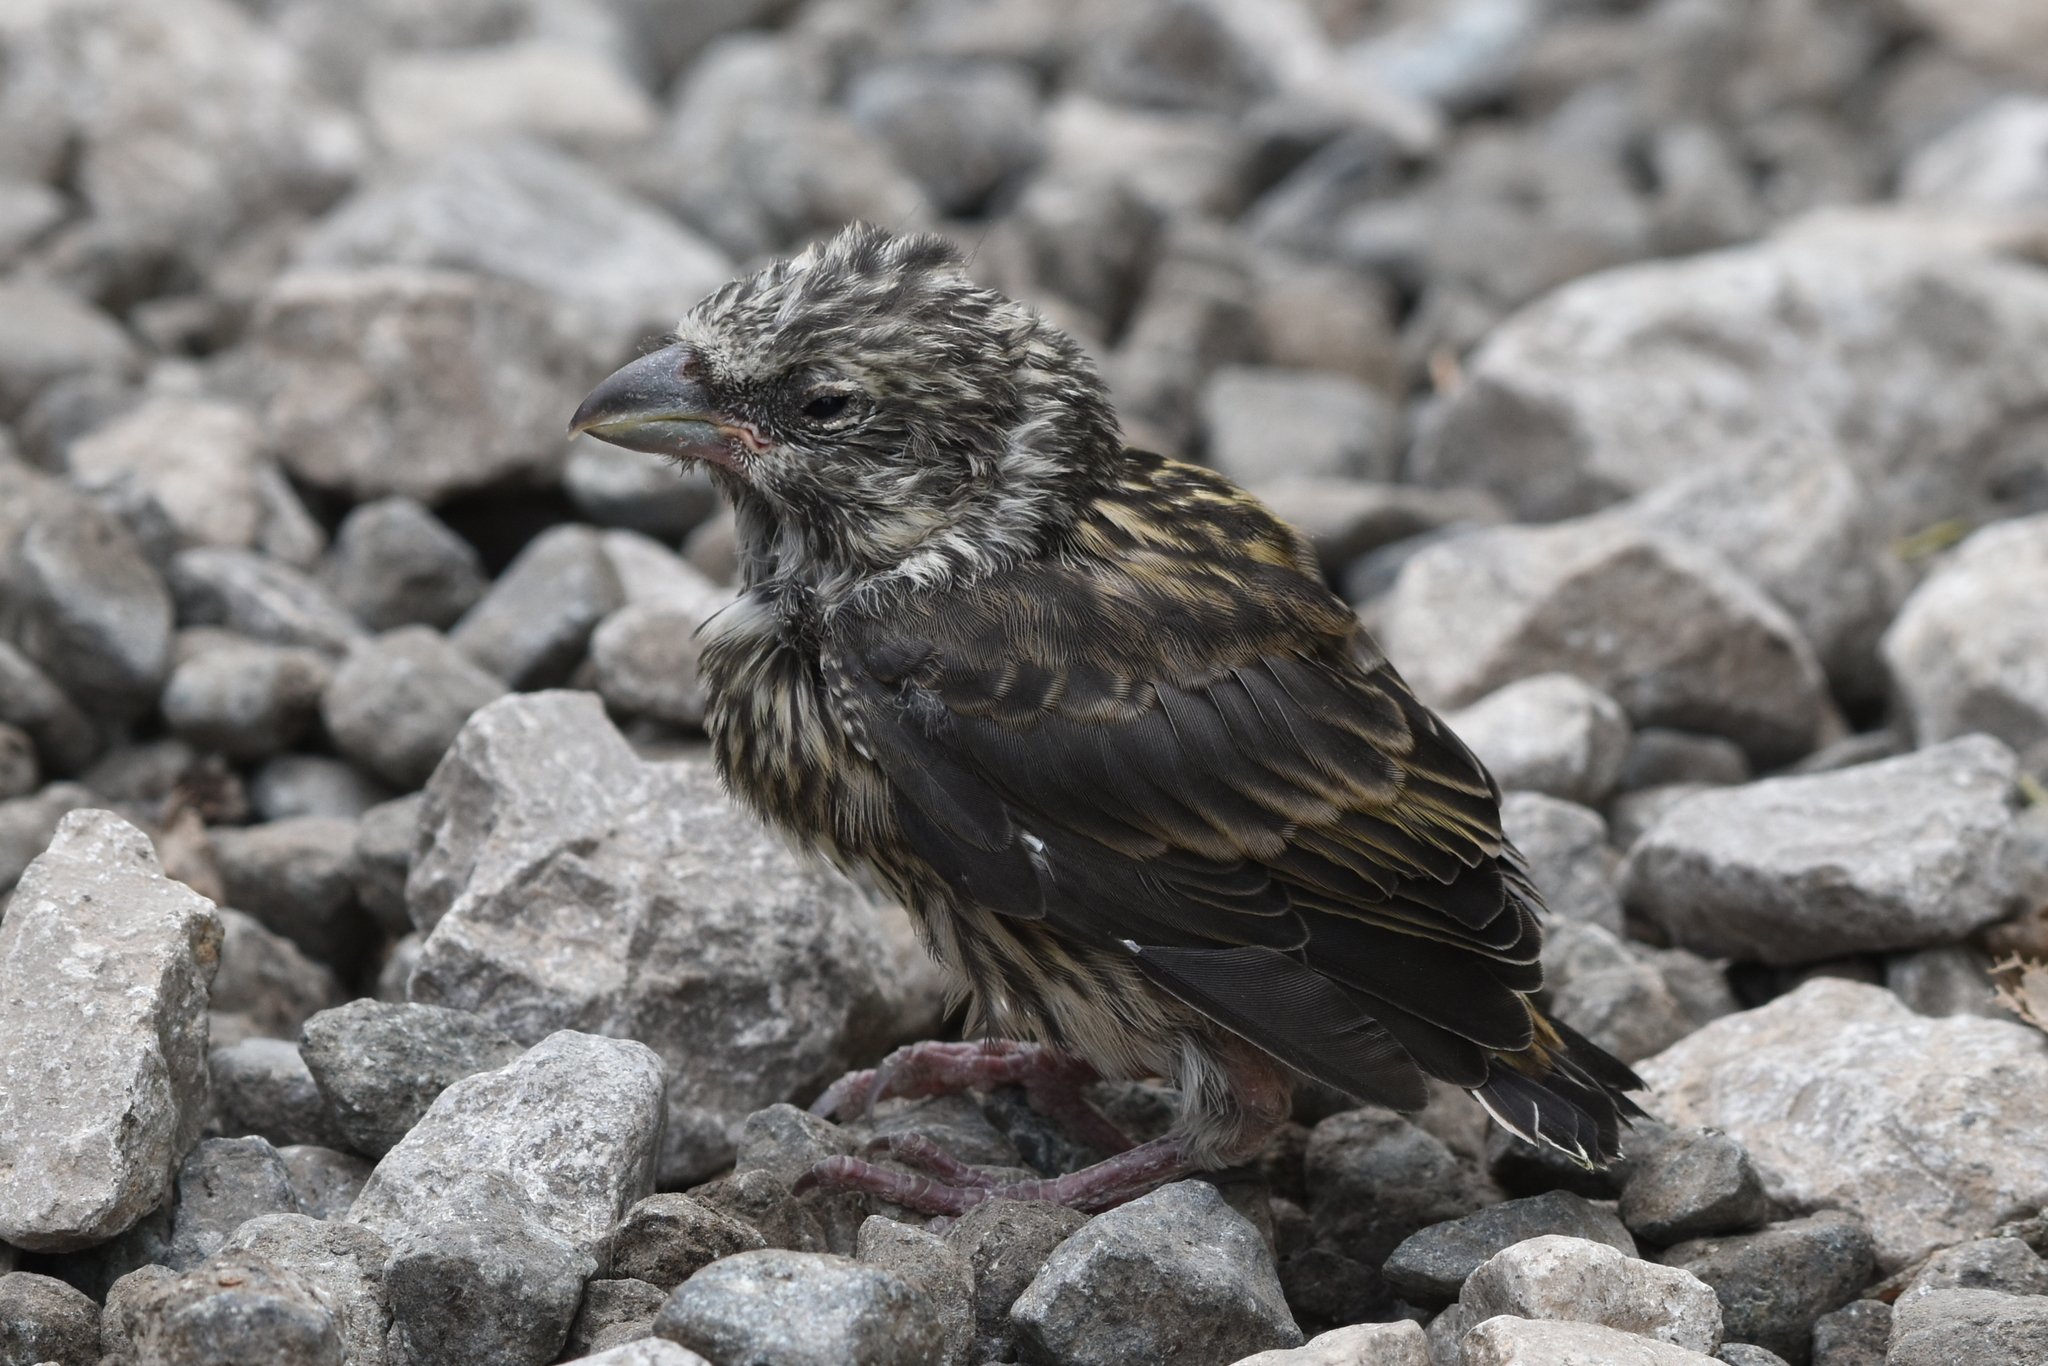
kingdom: Animalia
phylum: Chordata
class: Aves
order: Passeriformes
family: Fringillidae
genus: Loxia
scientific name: Loxia curvirostra
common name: Red crossbill
